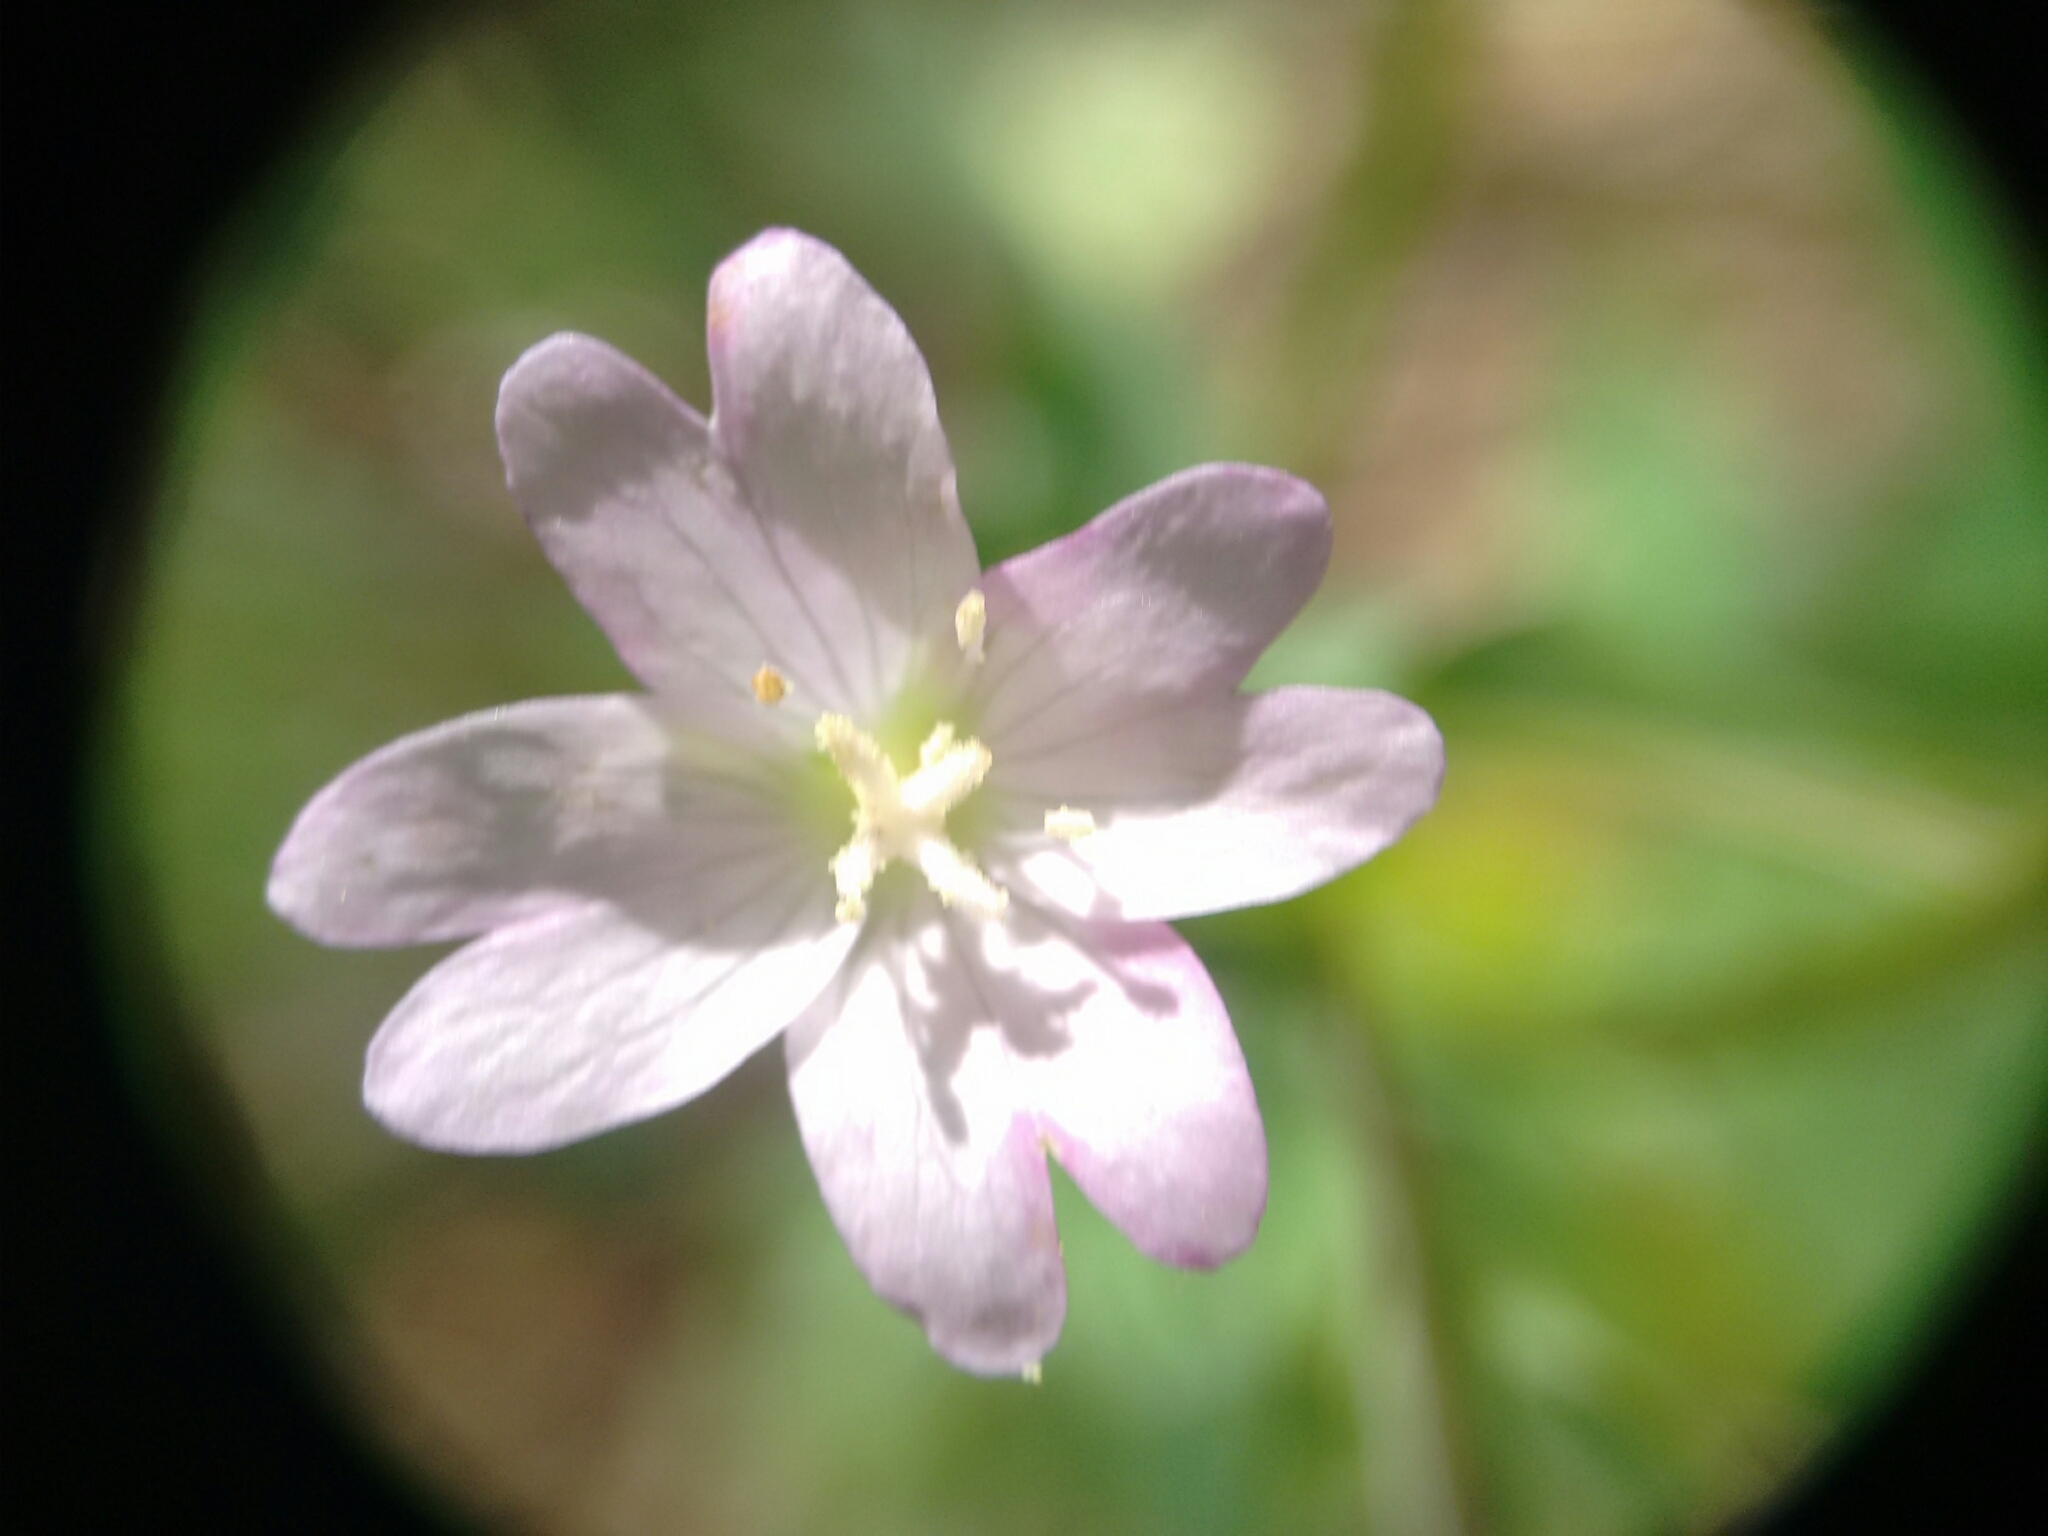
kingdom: Plantae
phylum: Tracheophyta
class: Magnoliopsida
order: Myrtales
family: Onagraceae
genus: Epilobium
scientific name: Epilobium montanum
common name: Broad-leaved willowherb
